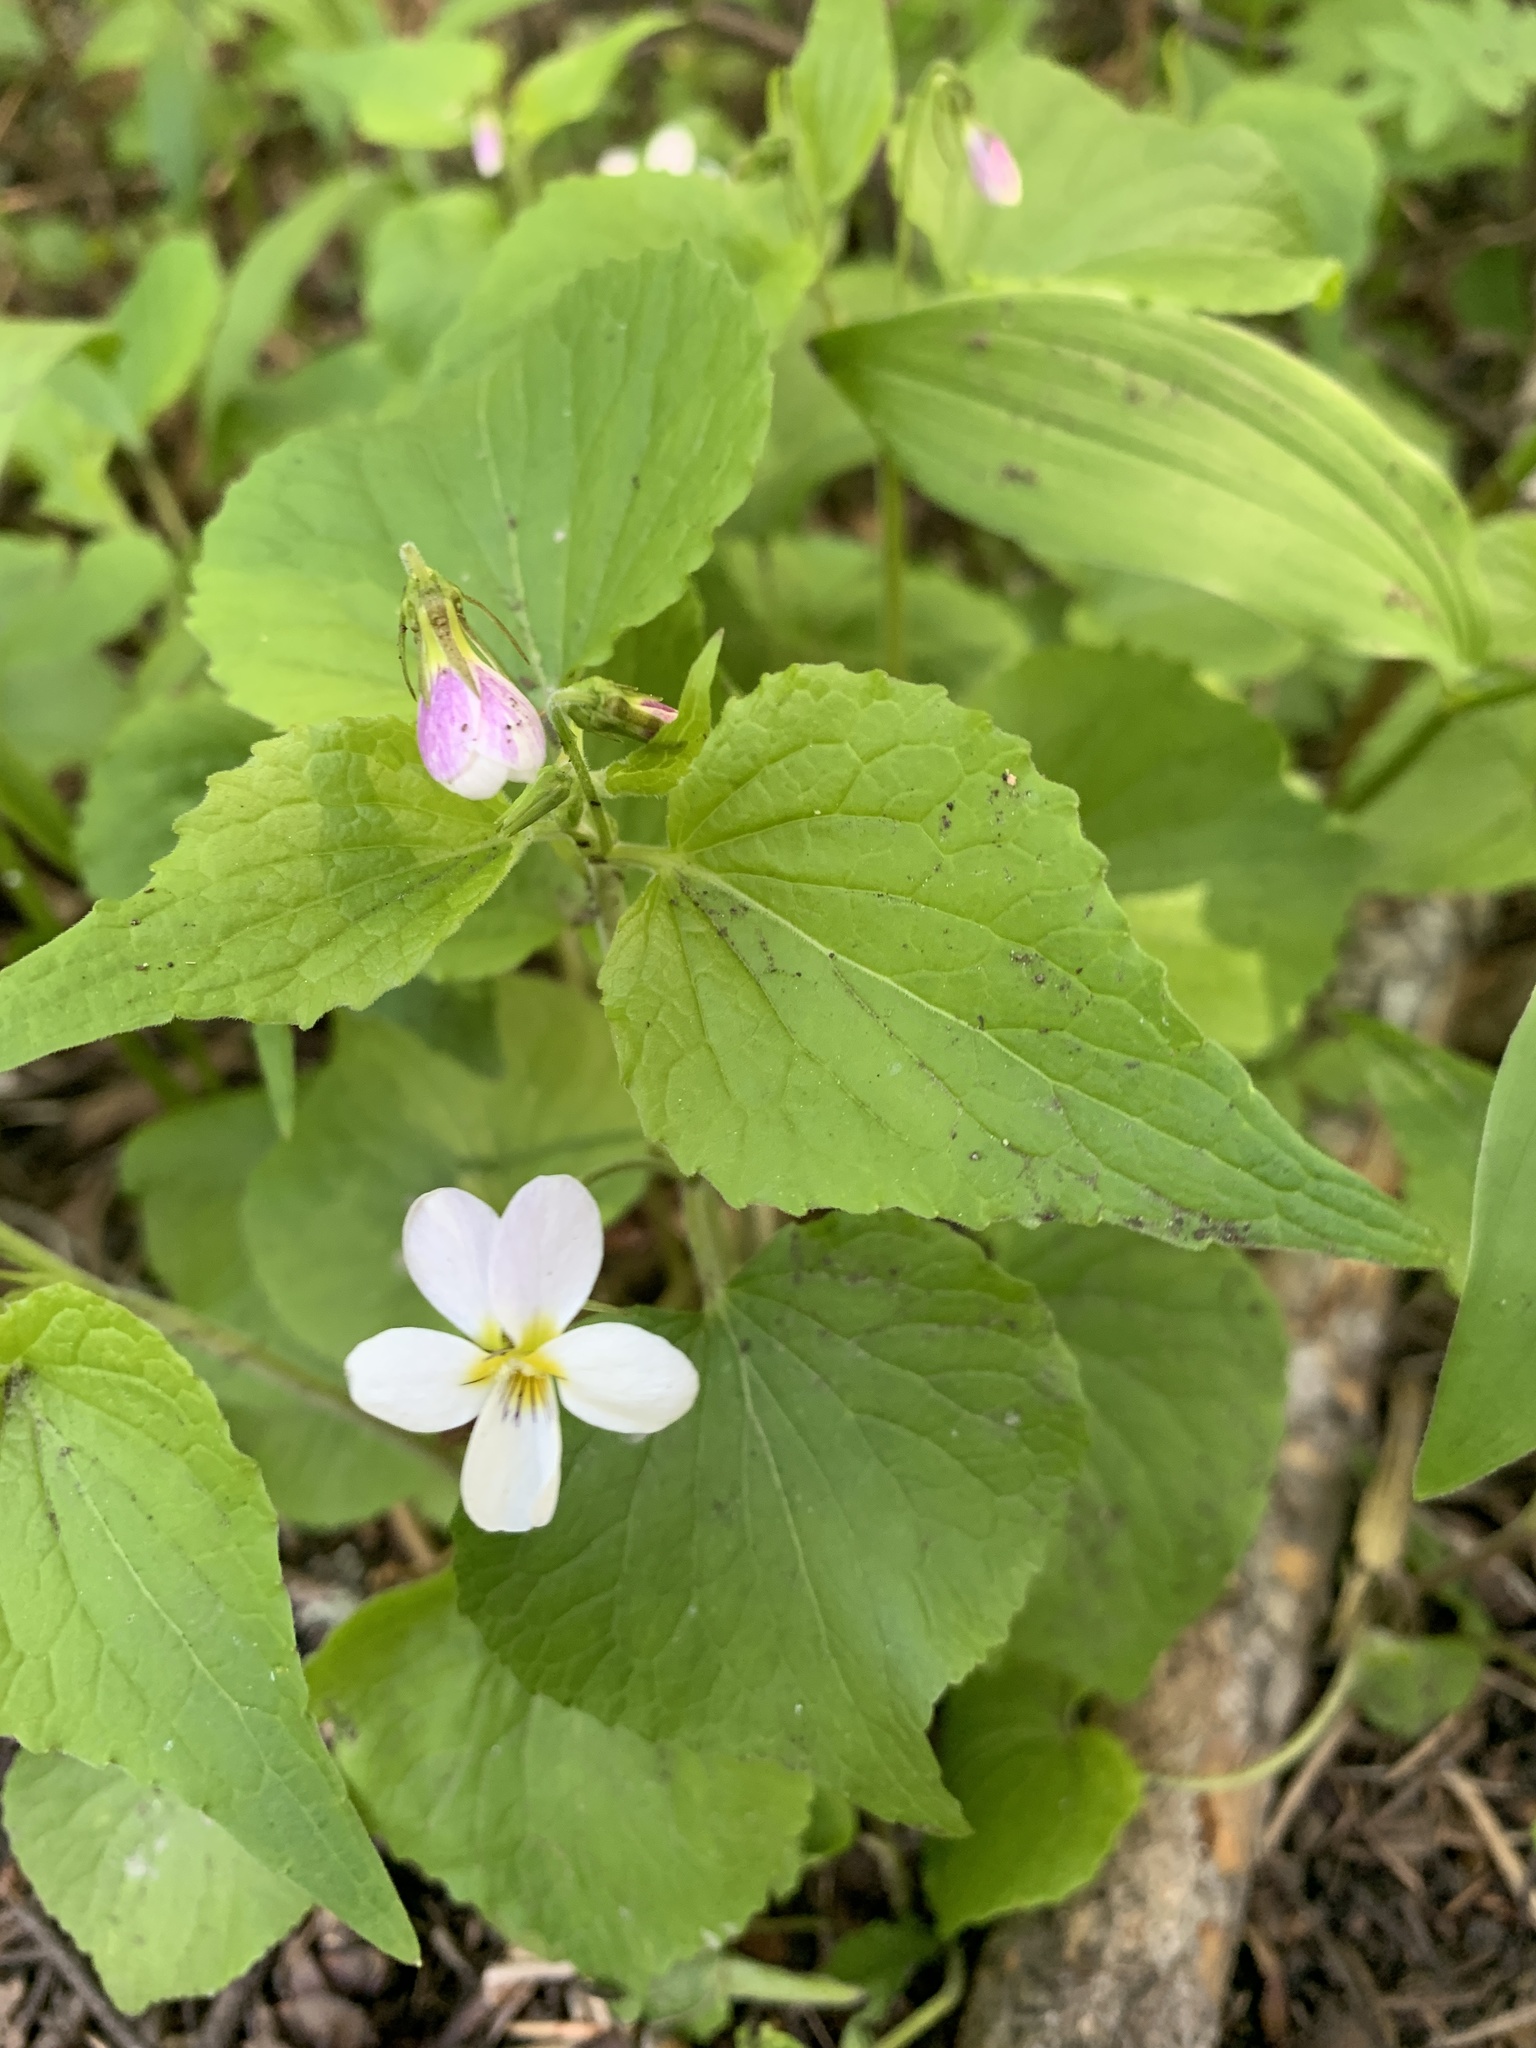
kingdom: Plantae
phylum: Tracheophyta
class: Magnoliopsida
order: Malpighiales
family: Violaceae
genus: Viola
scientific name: Viola canadensis
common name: Canada violet
